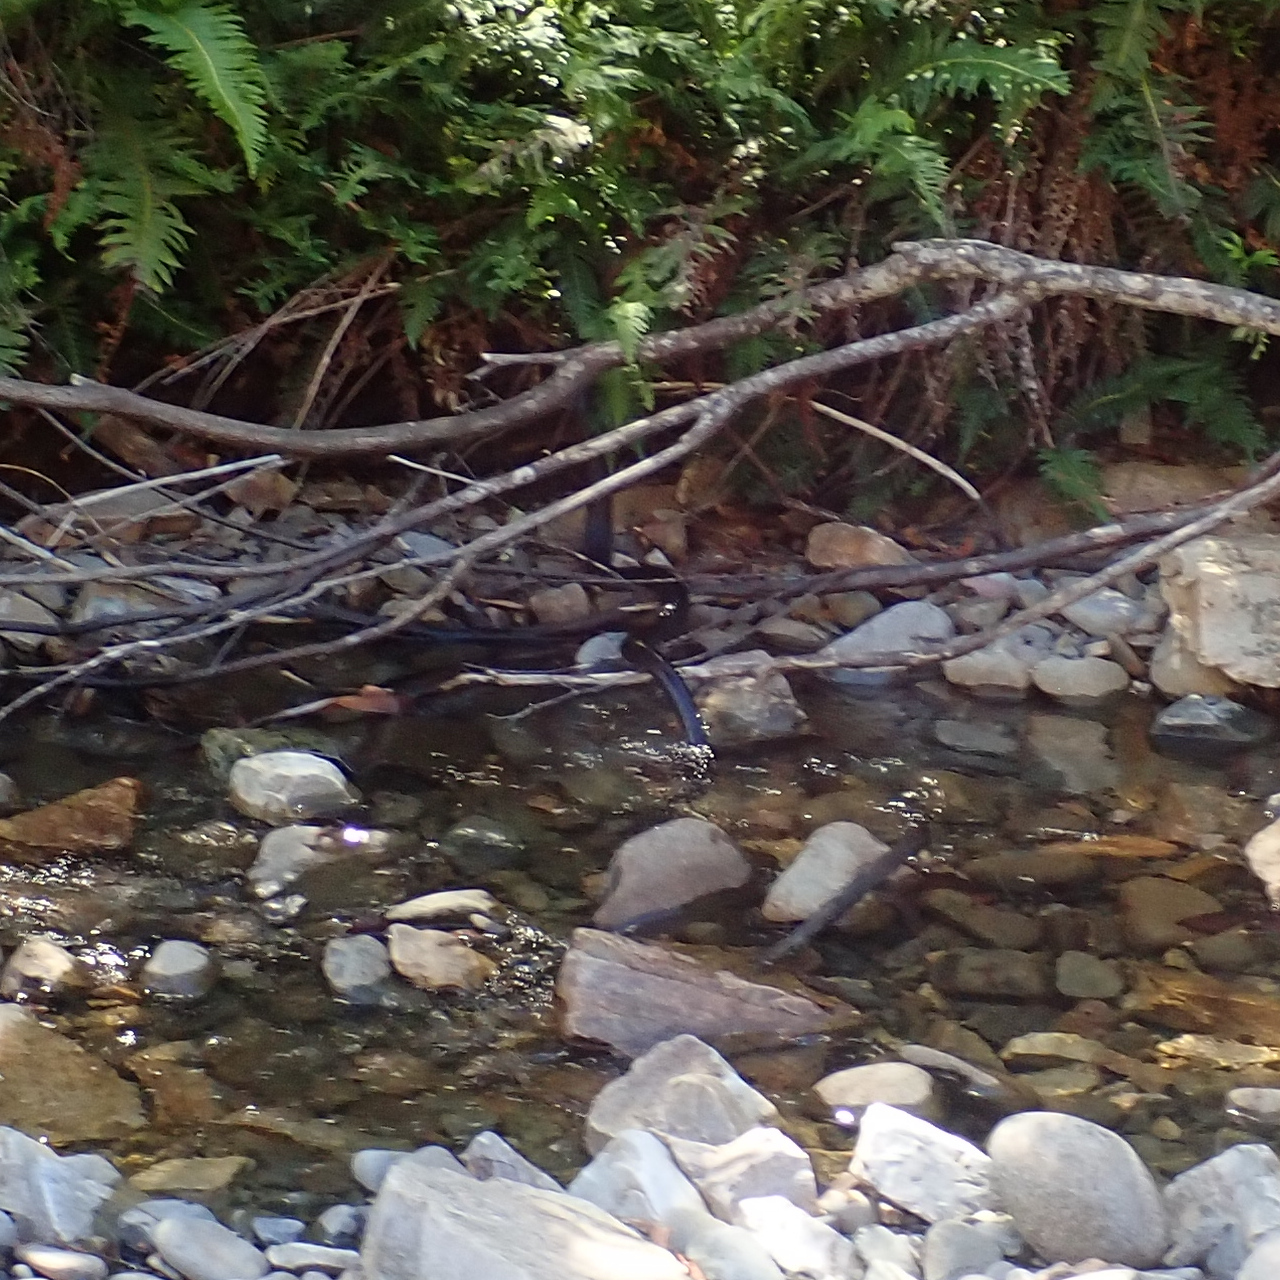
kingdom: Animalia
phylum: Chordata
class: Squamata
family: Elapidae
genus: Notechis
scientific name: Notechis scutatus
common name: Mainland tiger snake
